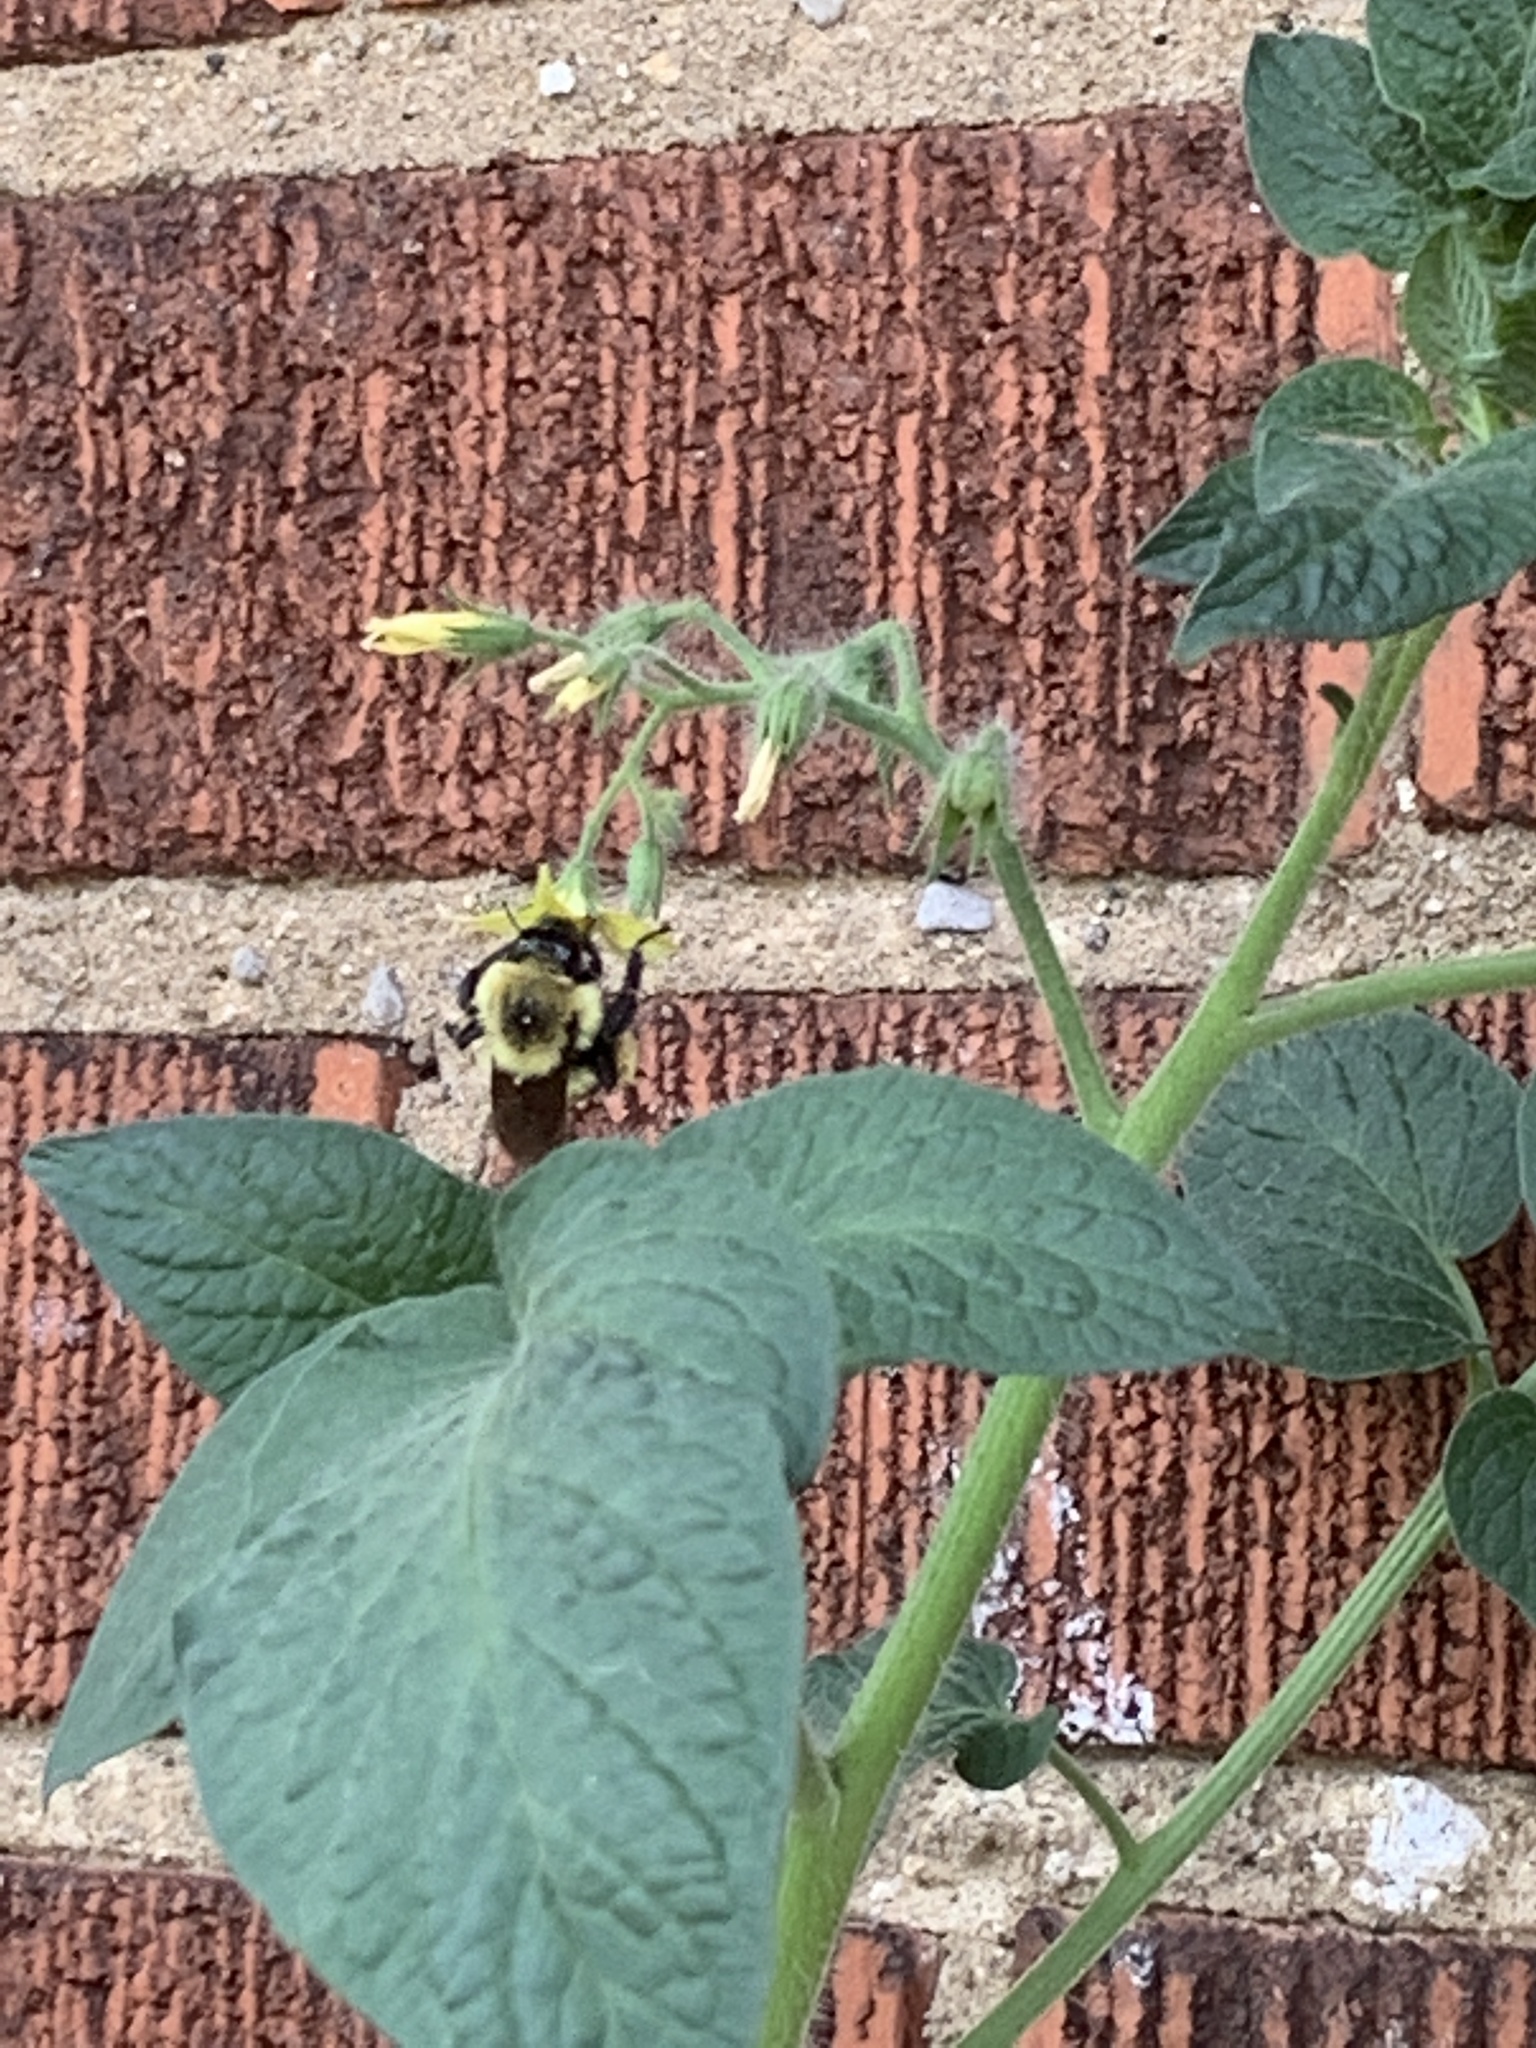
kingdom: Animalia
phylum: Arthropoda
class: Insecta
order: Hymenoptera
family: Apidae
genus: Bombus
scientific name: Bombus bimaculatus
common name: Two-spotted bumble bee
